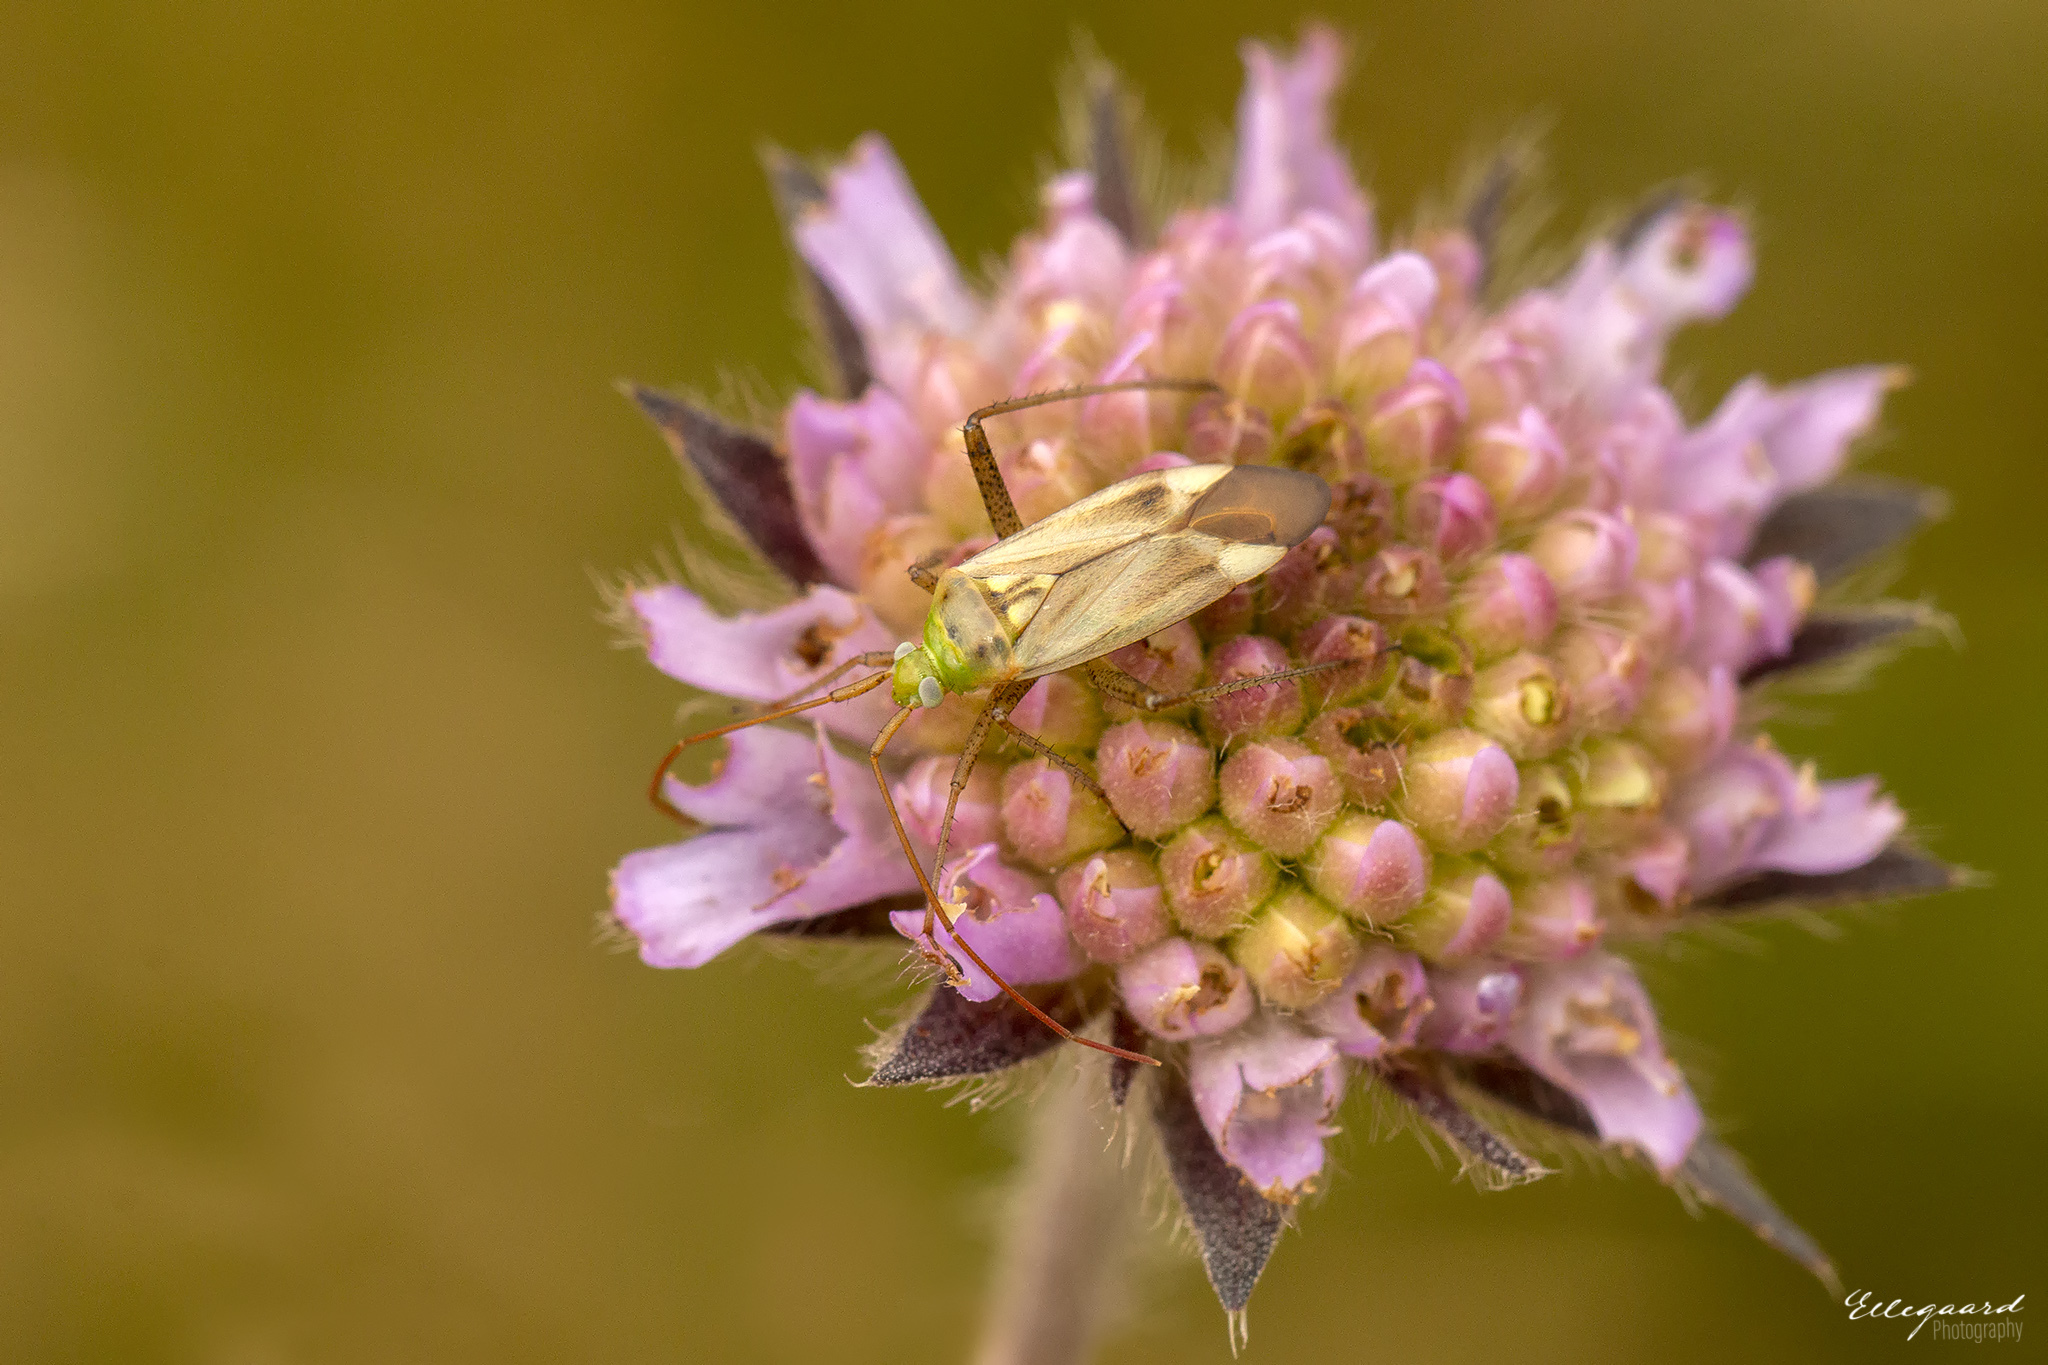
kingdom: Animalia
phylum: Arthropoda
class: Insecta
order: Hemiptera
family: Miridae
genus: Adelphocoris
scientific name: Adelphocoris lineolatus
